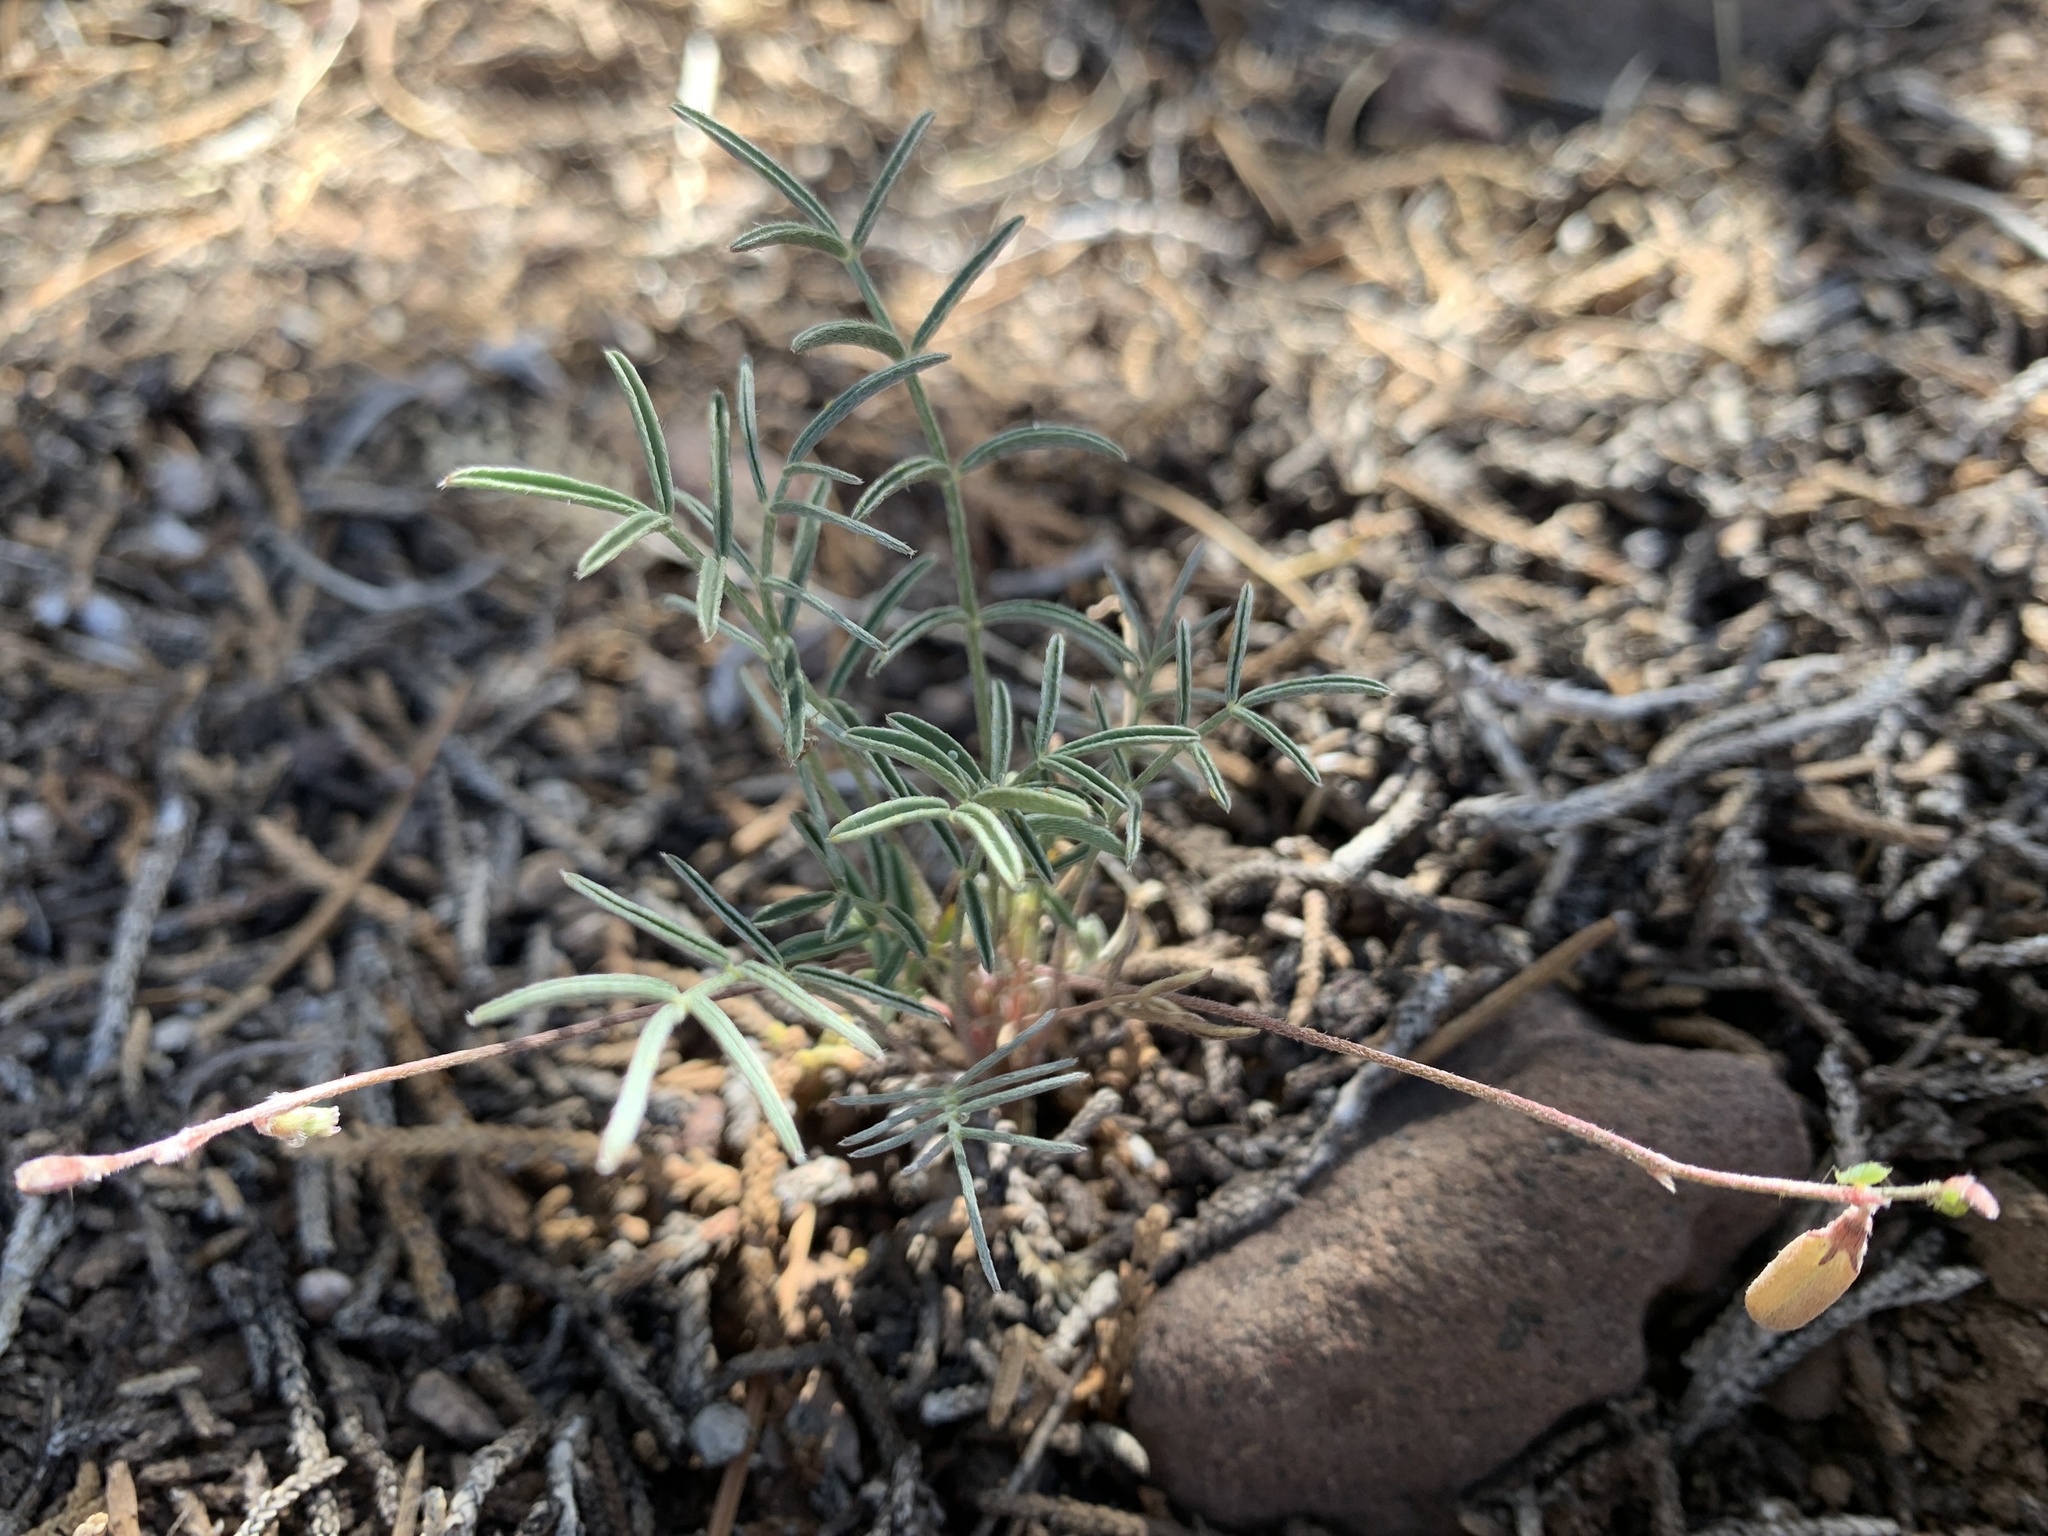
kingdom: Plantae
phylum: Tracheophyta
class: Magnoliopsida
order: Fabales
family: Fabaceae
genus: Astragalus
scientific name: Astragalus brandegeei
